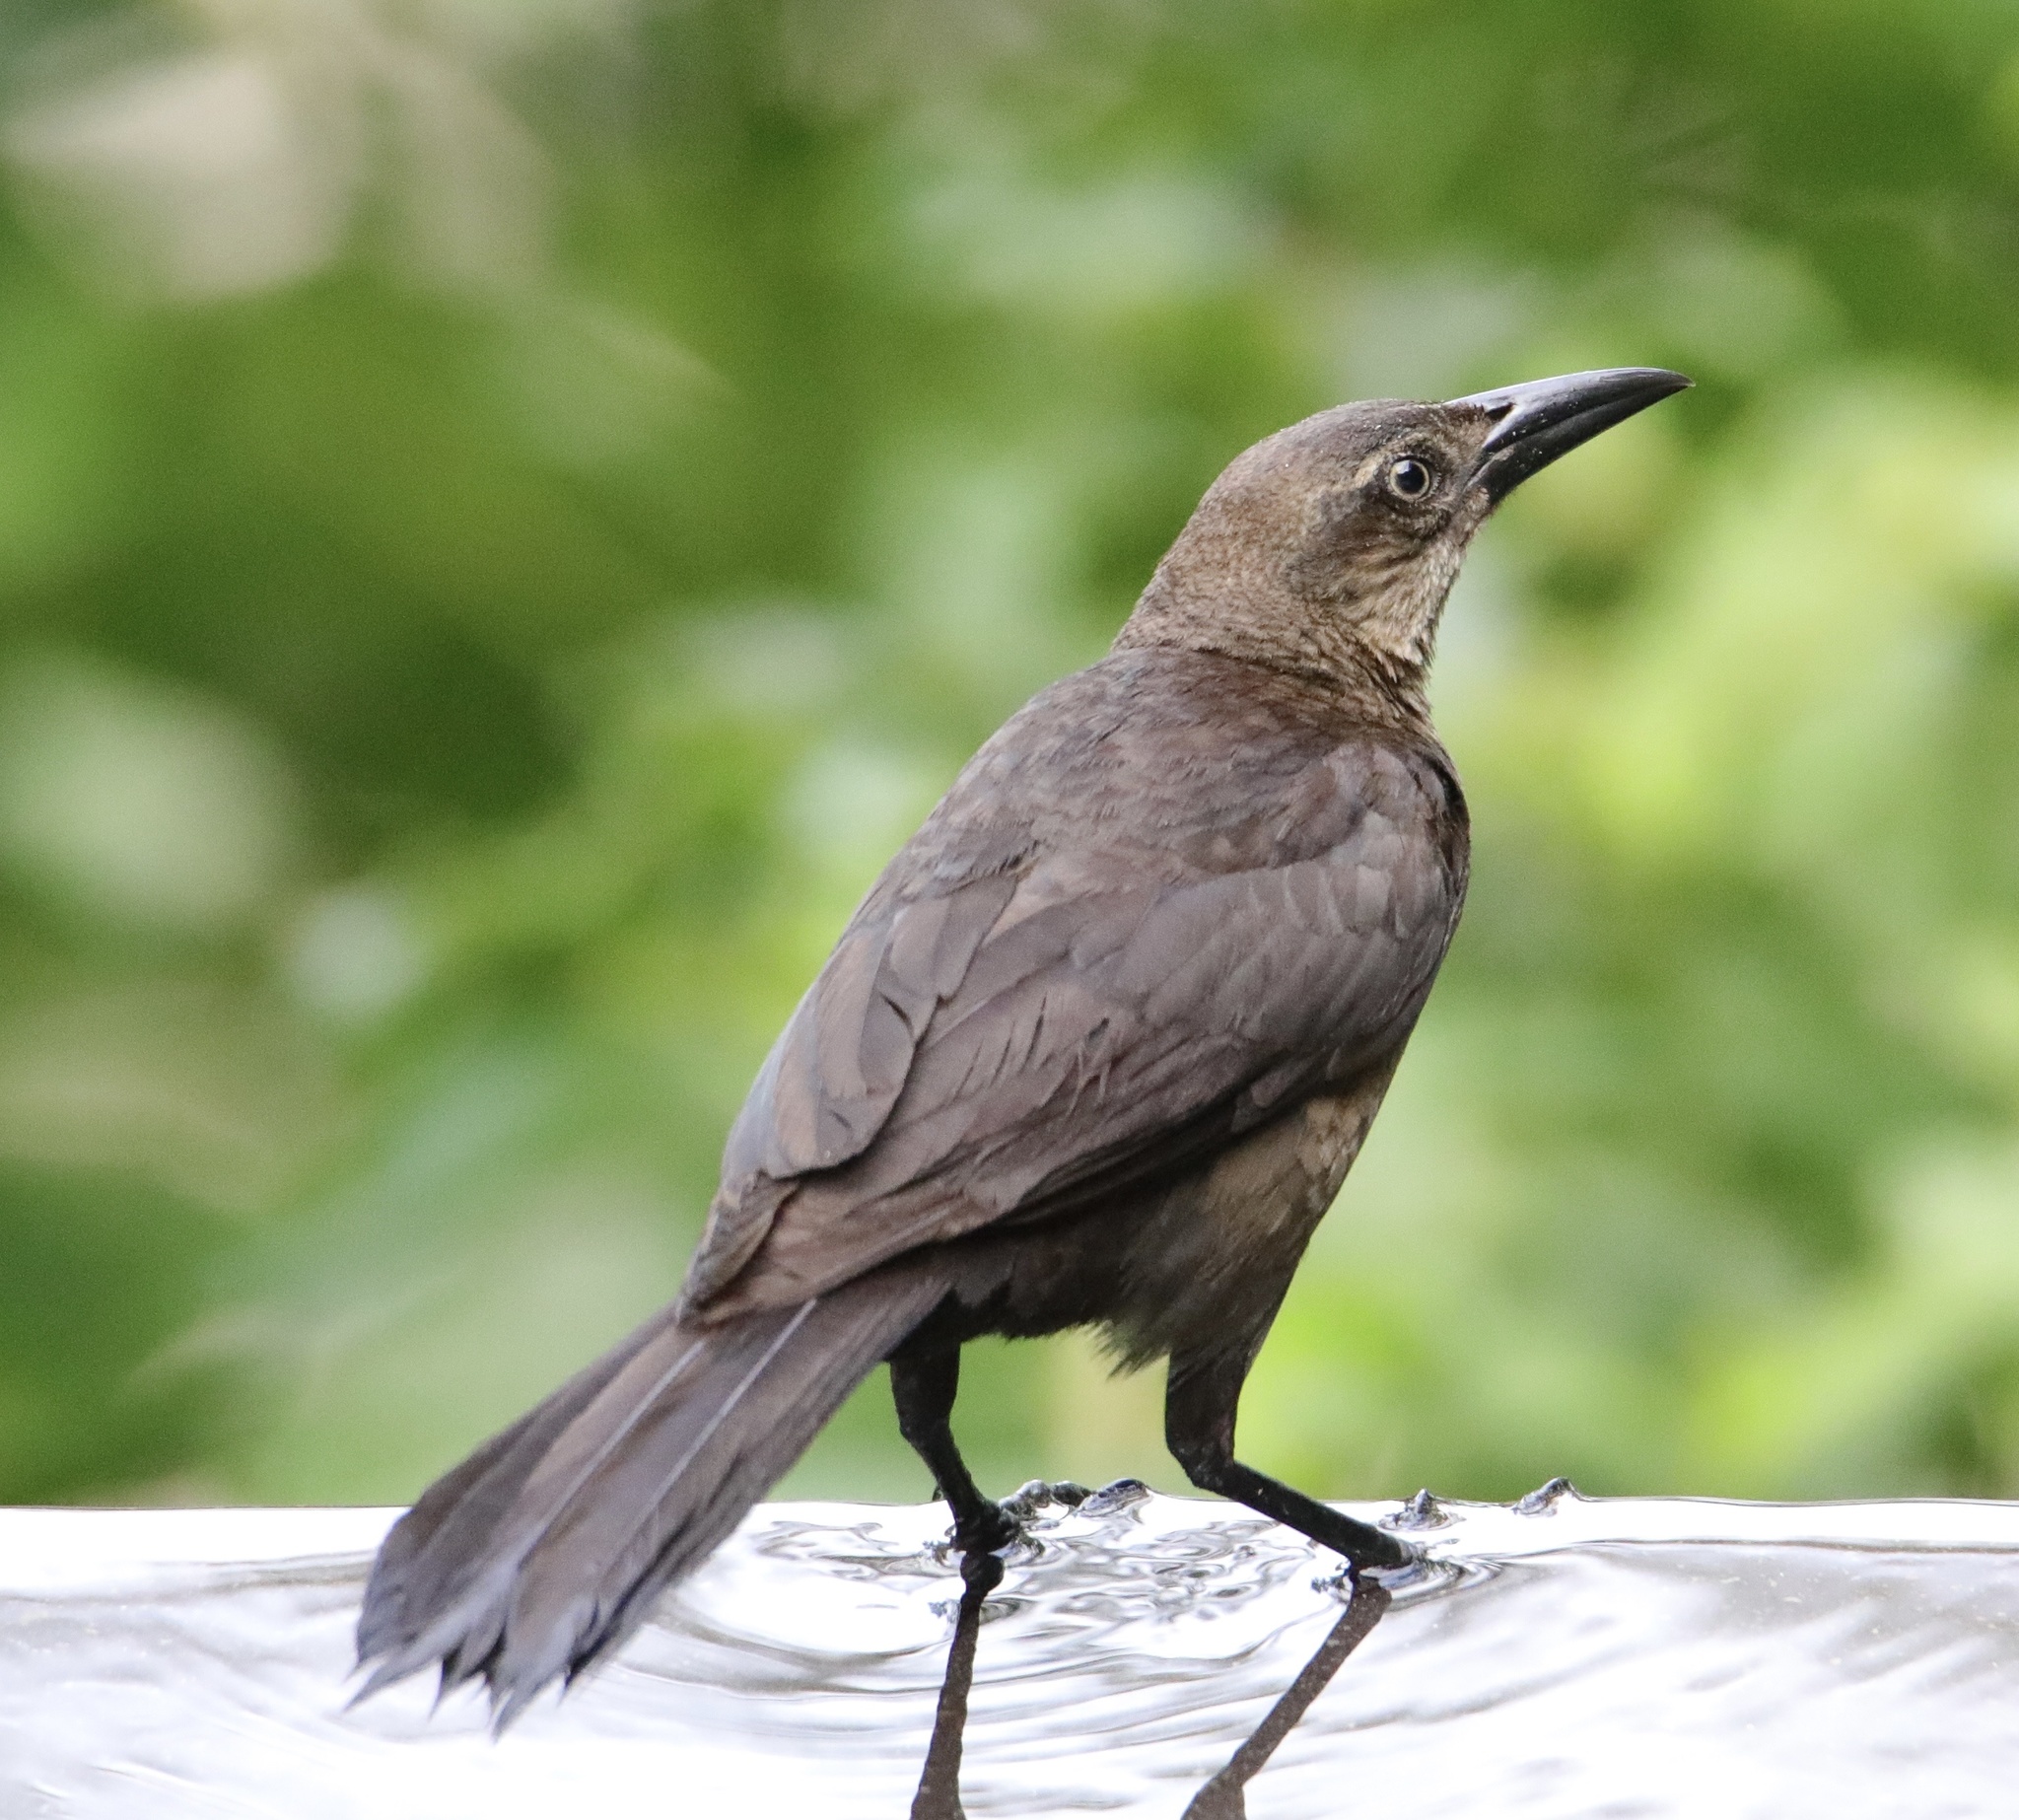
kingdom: Animalia
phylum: Chordata
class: Aves
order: Passeriformes
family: Icteridae
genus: Quiscalus
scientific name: Quiscalus mexicanus
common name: Great-tailed grackle
